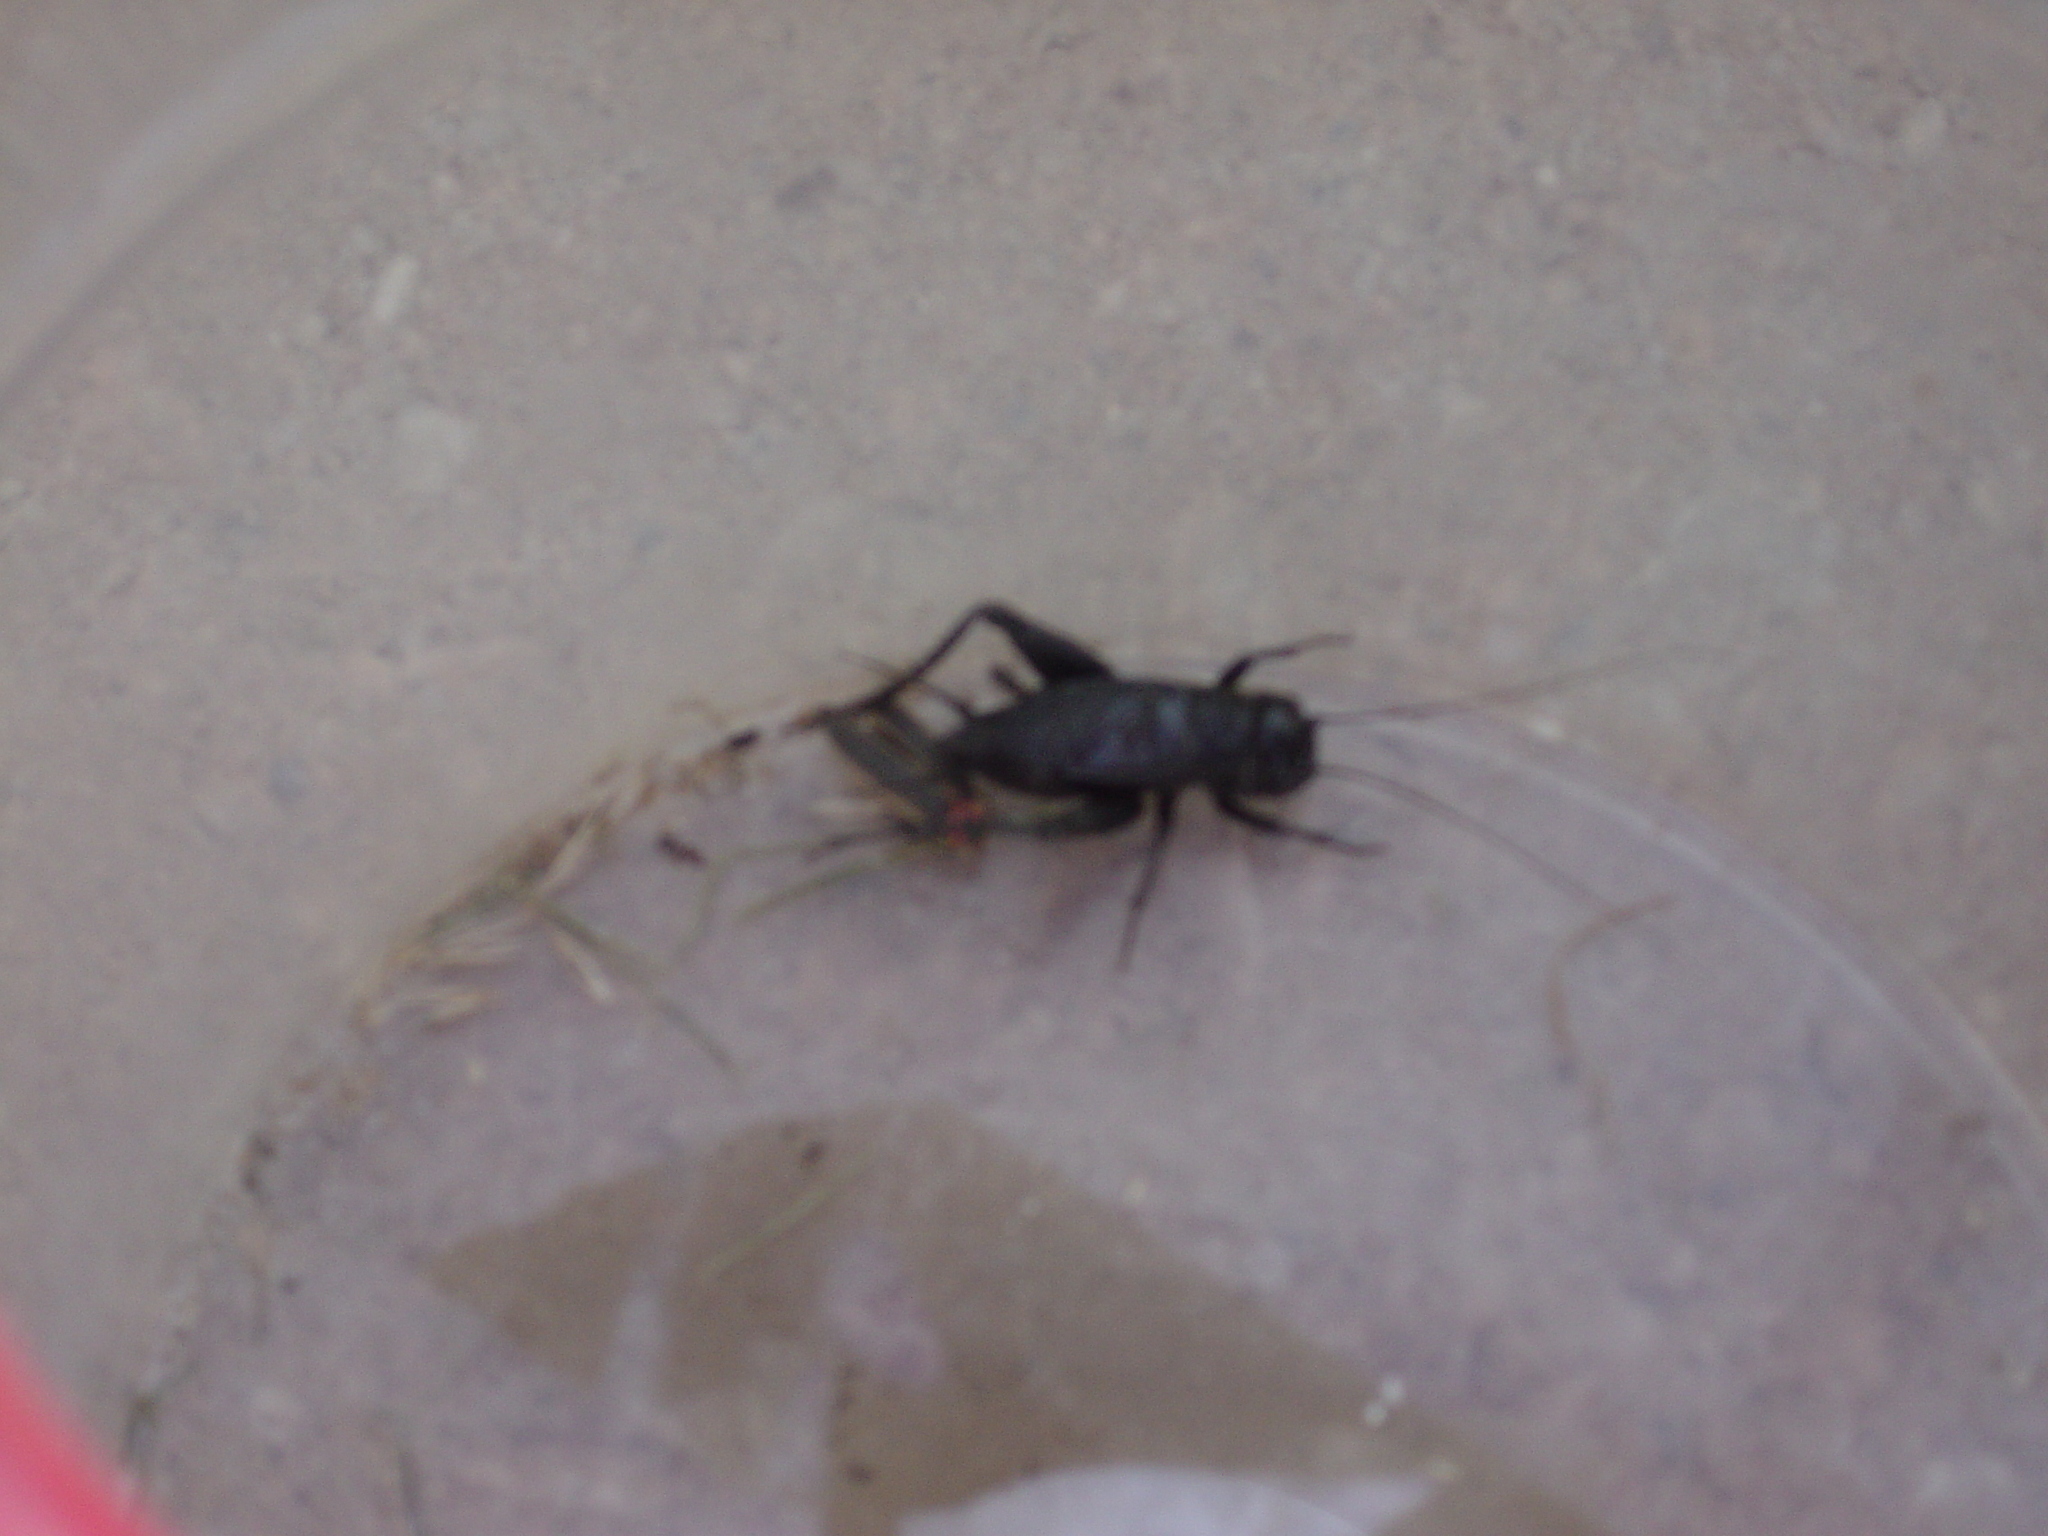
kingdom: Animalia
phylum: Arthropoda
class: Insecta
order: Orthoptera
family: Gryllidae
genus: Gryllus
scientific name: Gryllus pennsylvanicus
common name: Fall field cricket
